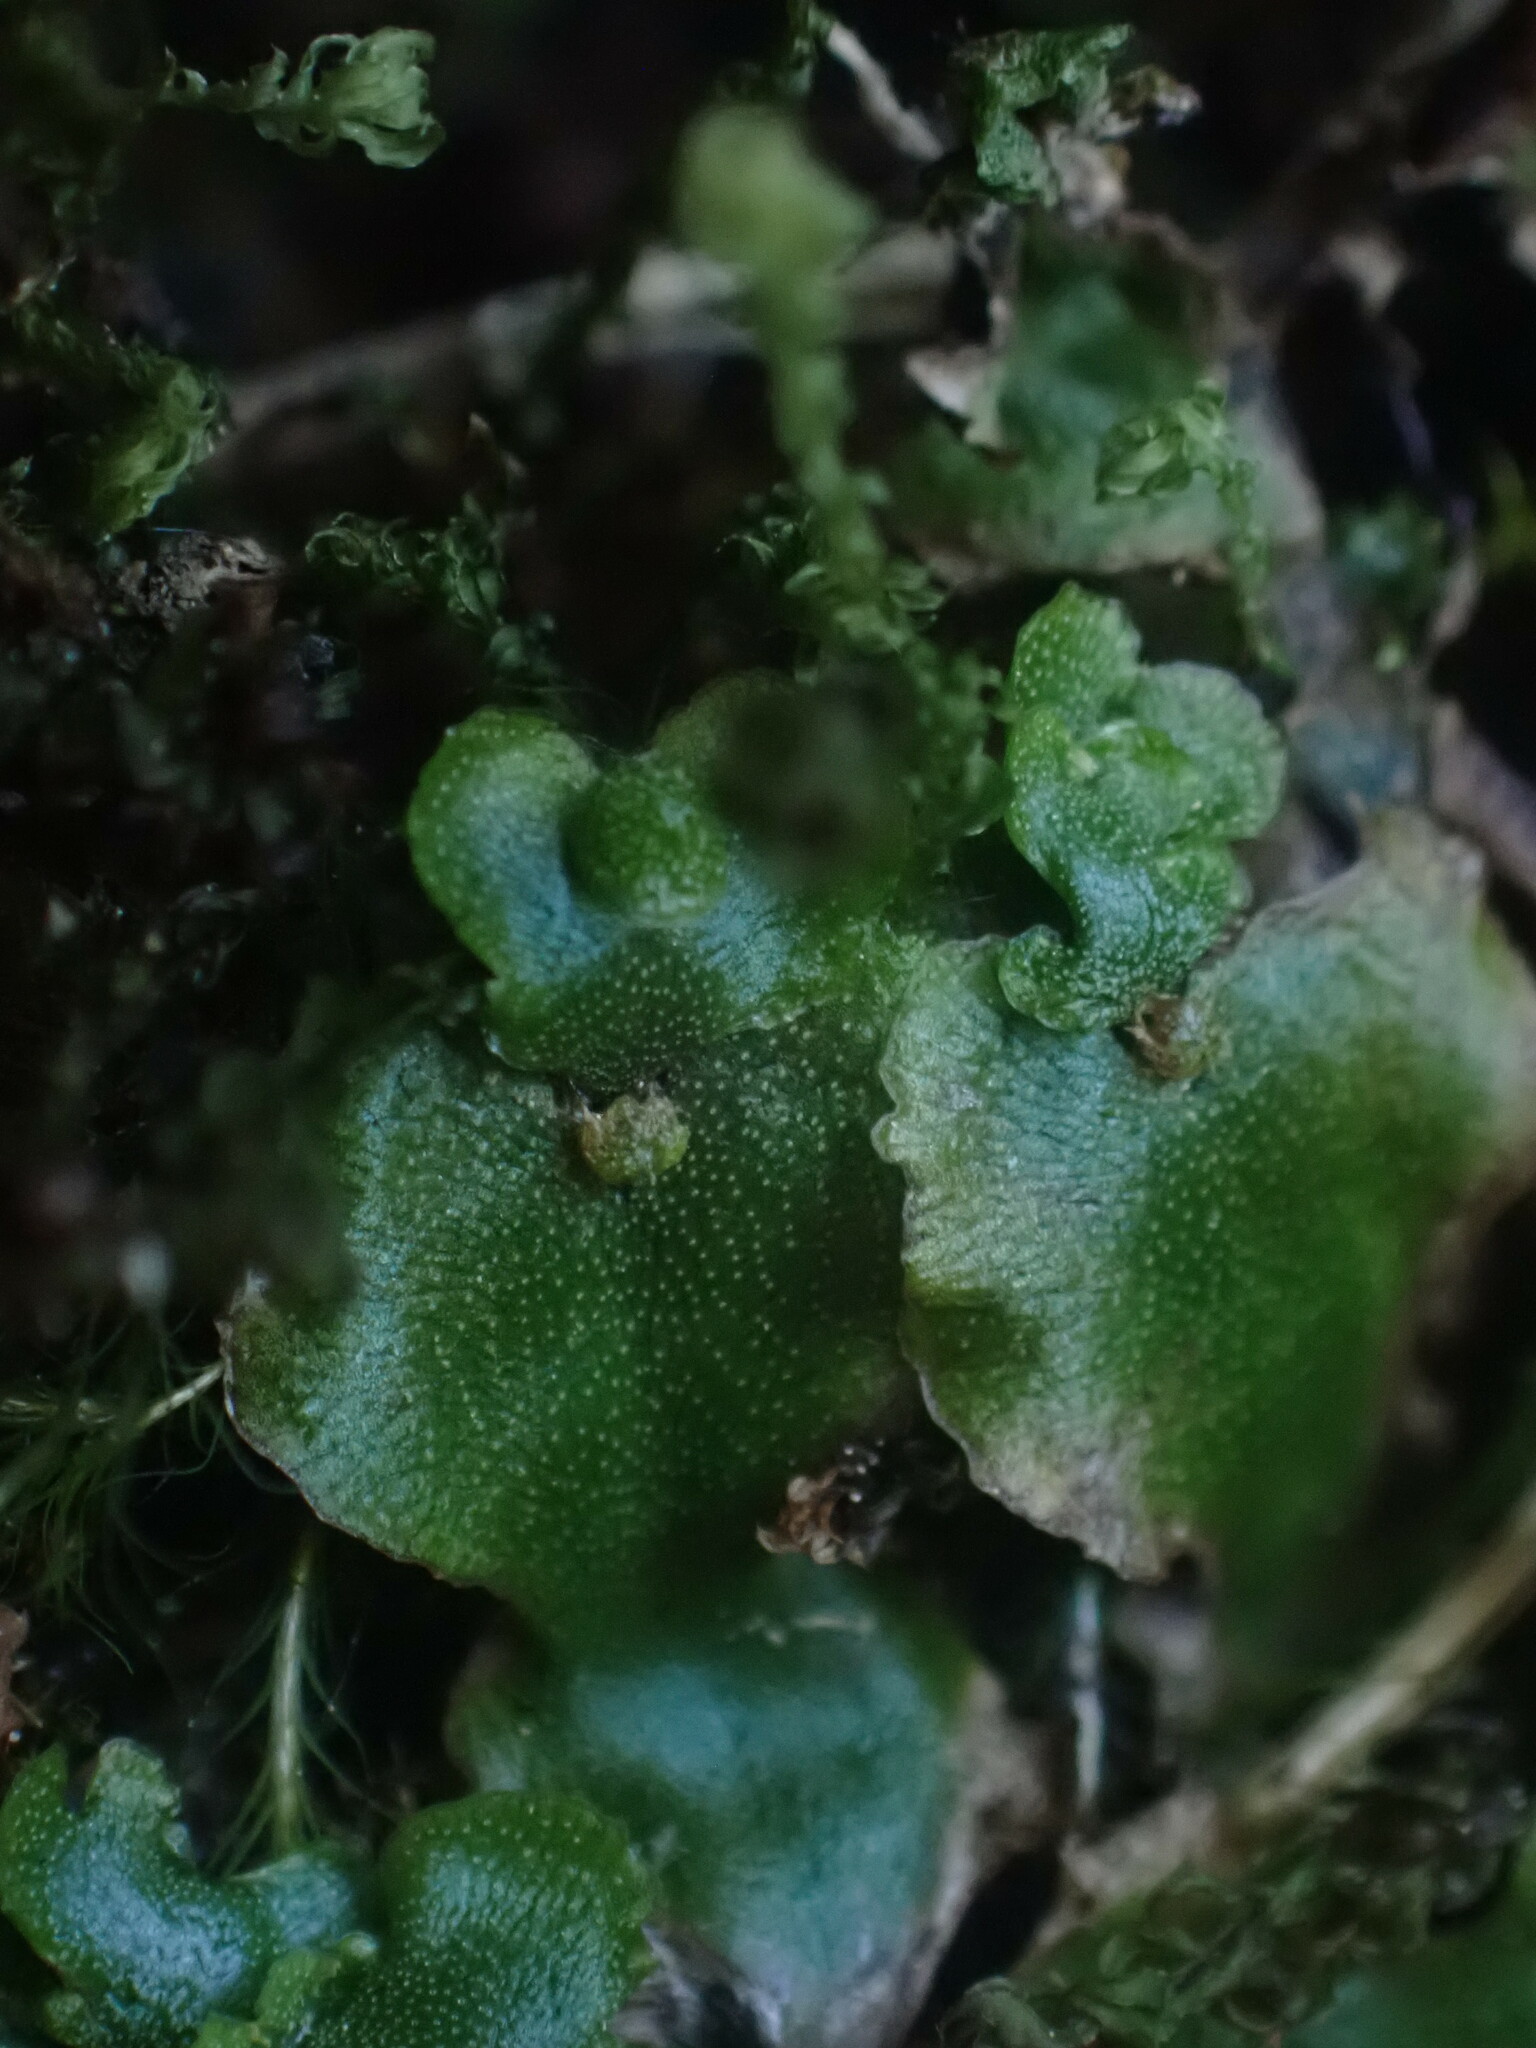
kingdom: Plantae
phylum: Marchantiophyta
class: Marchantiopsida
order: Marchantiales
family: Marchantiaceae
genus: Marchantia
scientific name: Marchantia quadrata
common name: Narrow mushroom-headed liverwort
